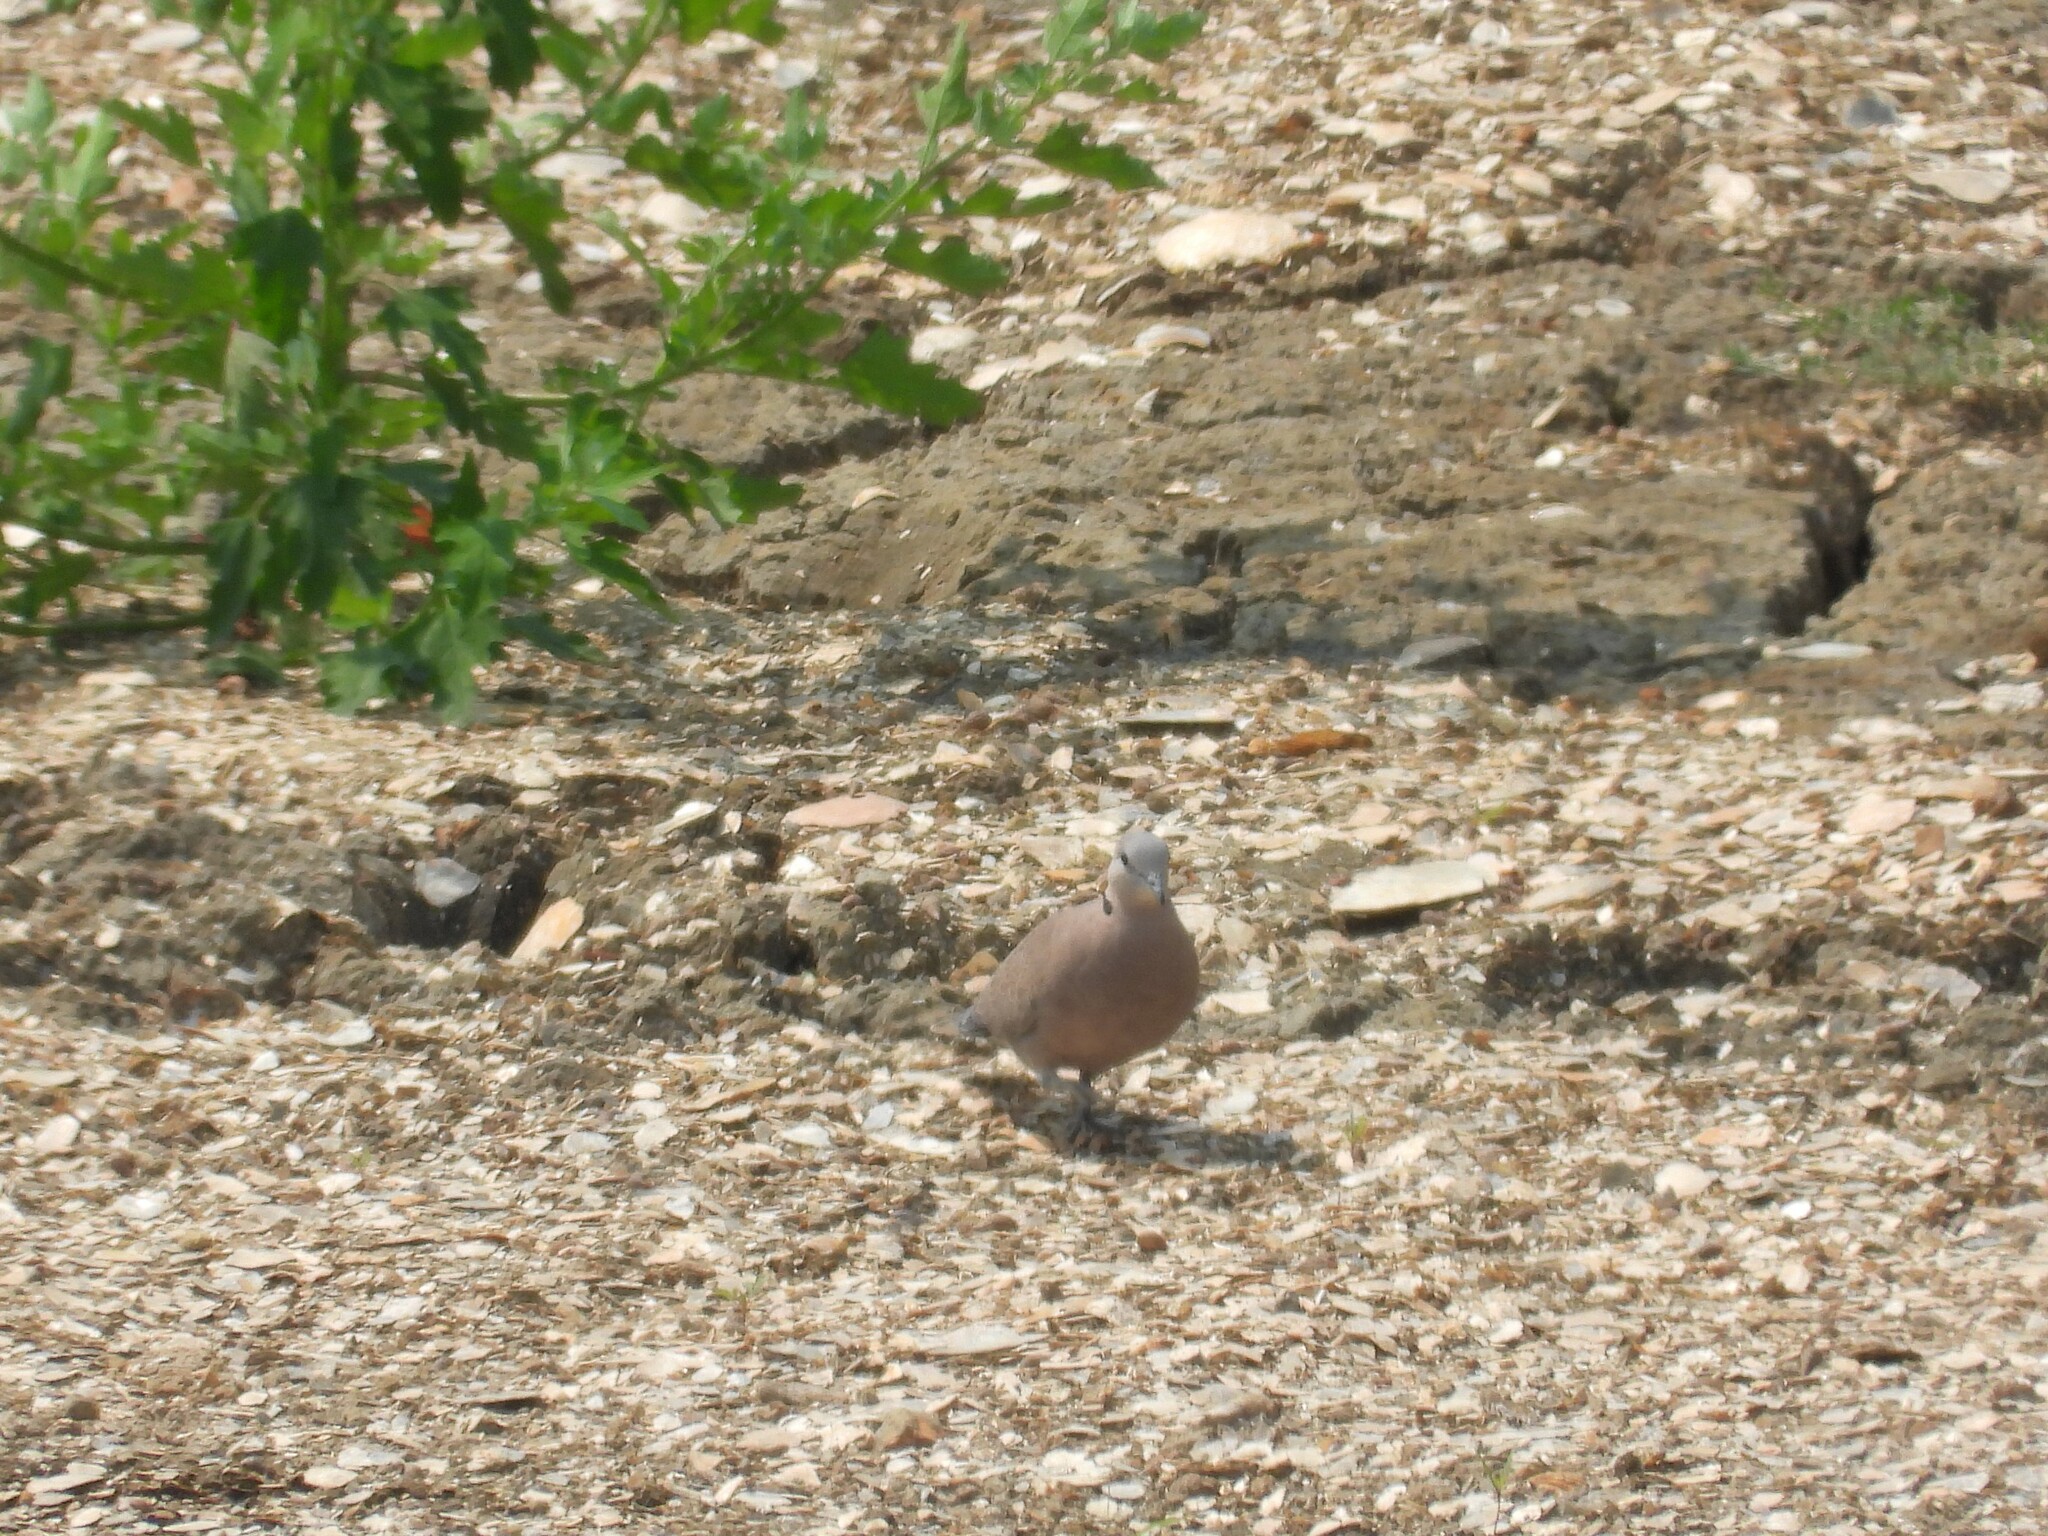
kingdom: Animalia
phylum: Chordata
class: Aves
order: Columbiformes
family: Columbidae
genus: Streptopelia
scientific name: Streptopelia tranquebarica
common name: Red turtle dove
